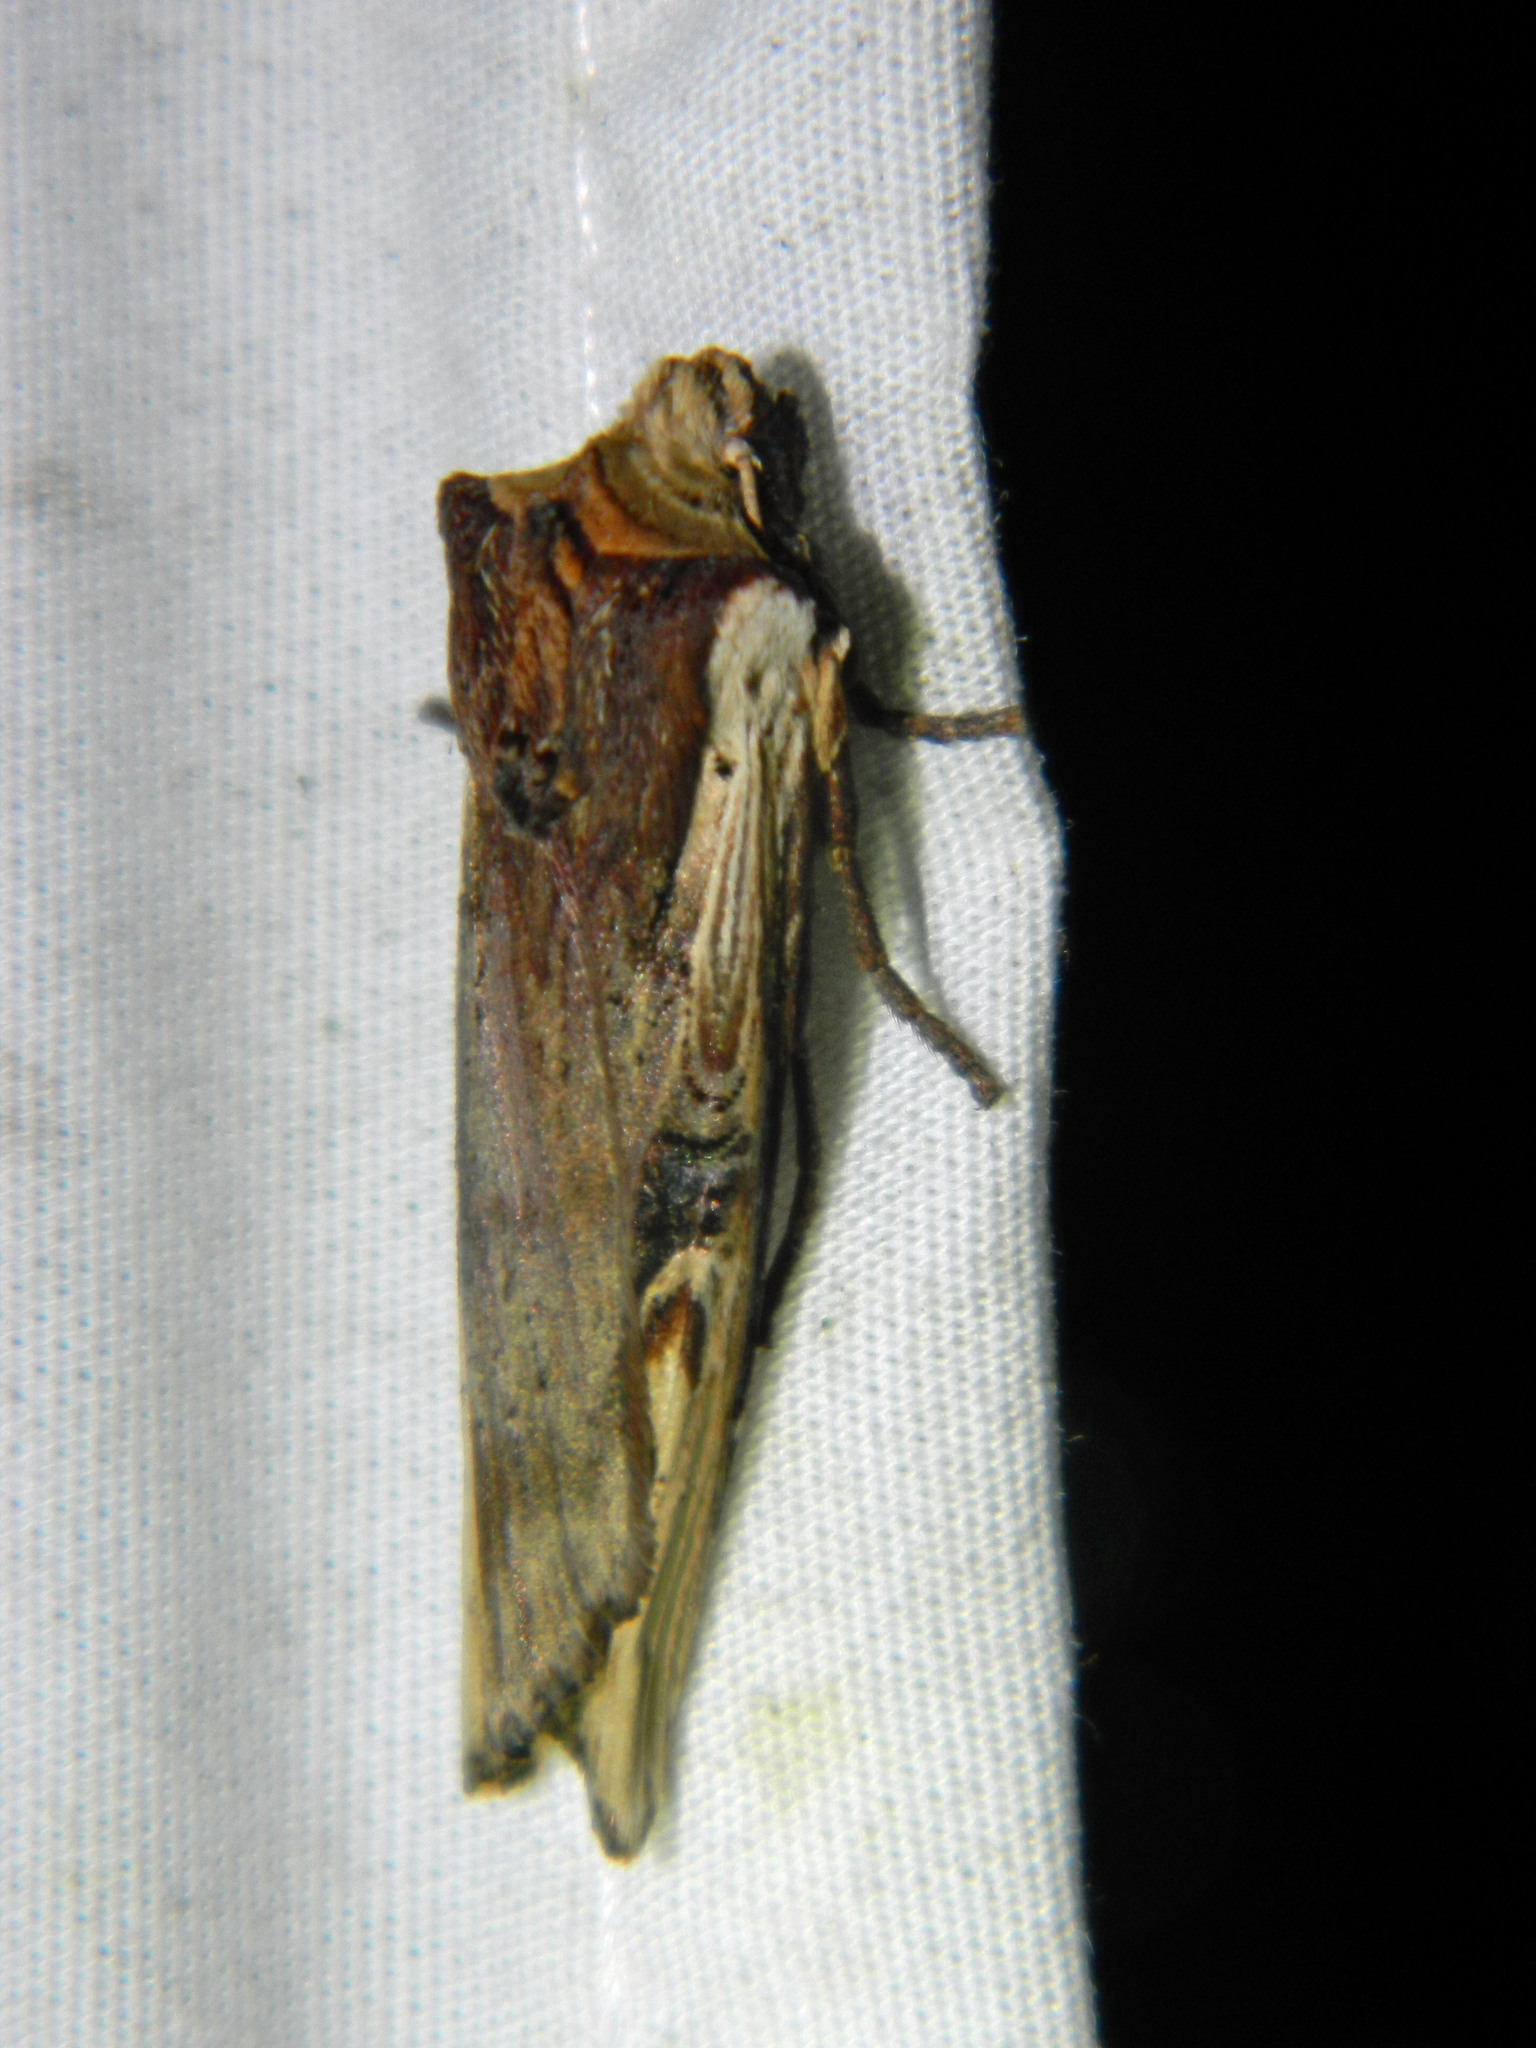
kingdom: Animalia
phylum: Arthropoda
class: Insecta
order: Lepidoptera
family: Noctuidae
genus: Xylena
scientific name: Xylena curvimacula
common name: Dot-and-dash swordgrass moth
